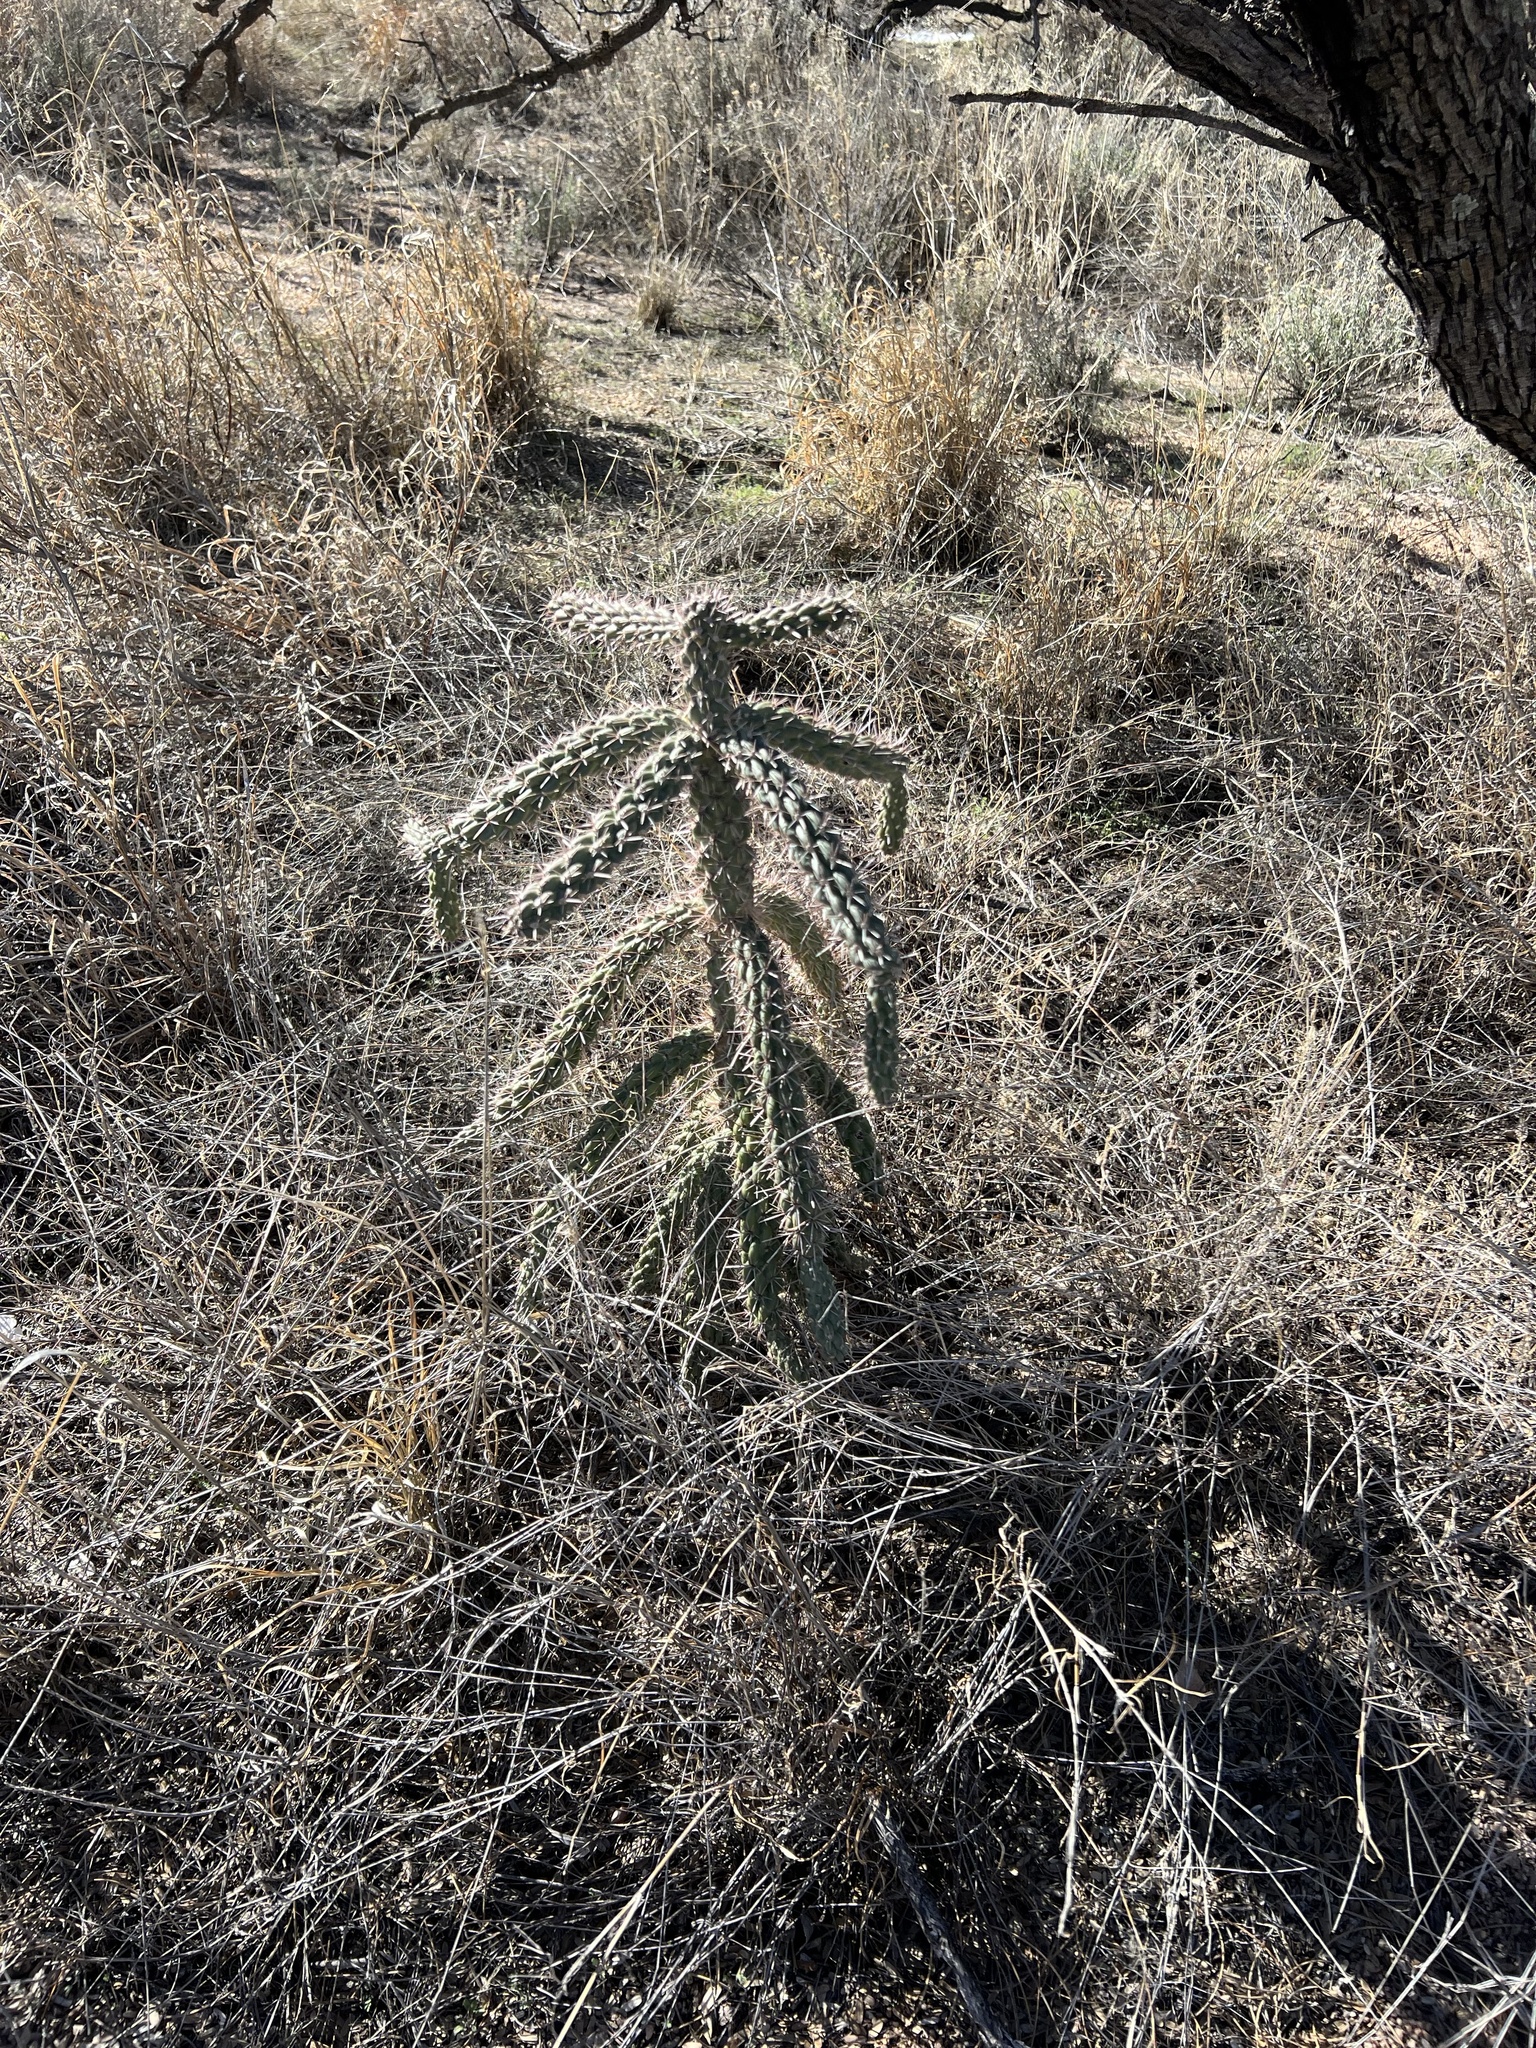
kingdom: Plantae
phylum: Tracheophyta
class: Magnoliopsida
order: Caryophyllales
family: Cactaceae
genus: Cylindropuntia
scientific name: Cylindropuntia imbricata
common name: Candelabrum cactus
